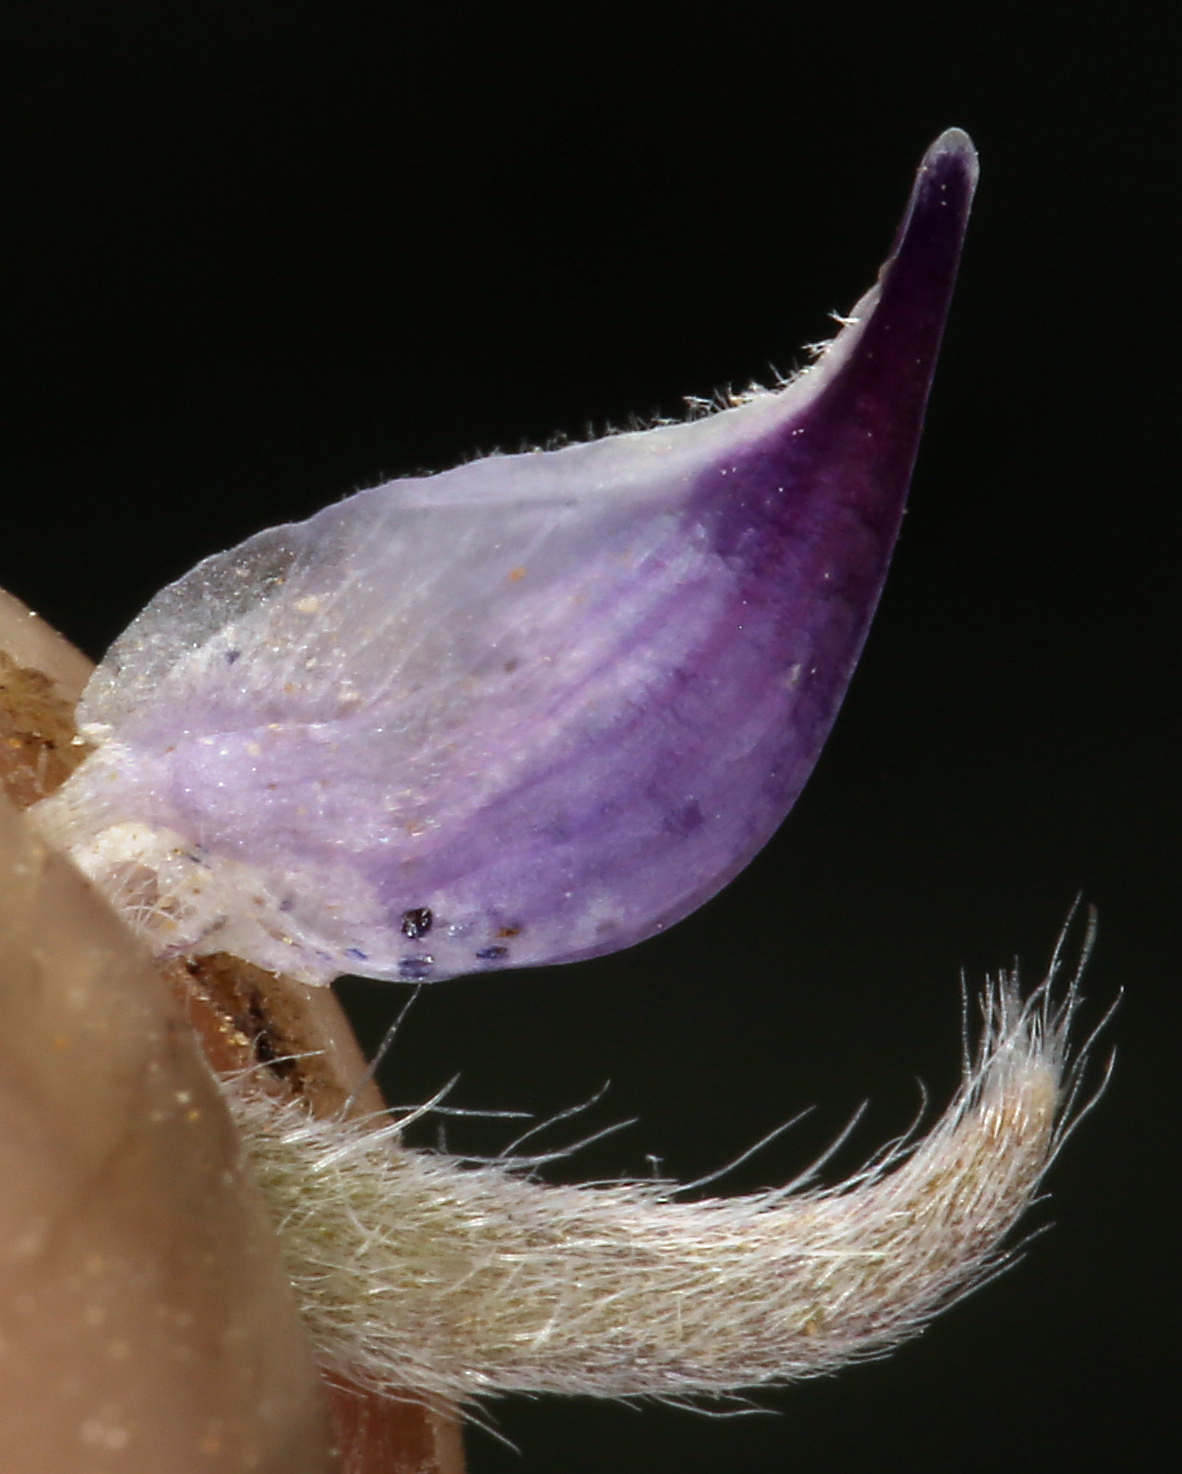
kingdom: Plantae
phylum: Tracheophyta
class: Magnoliopsida
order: Fabales
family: Fabaceae
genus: Lupinus
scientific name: Lupinus breweri
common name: Brewer's lupine
